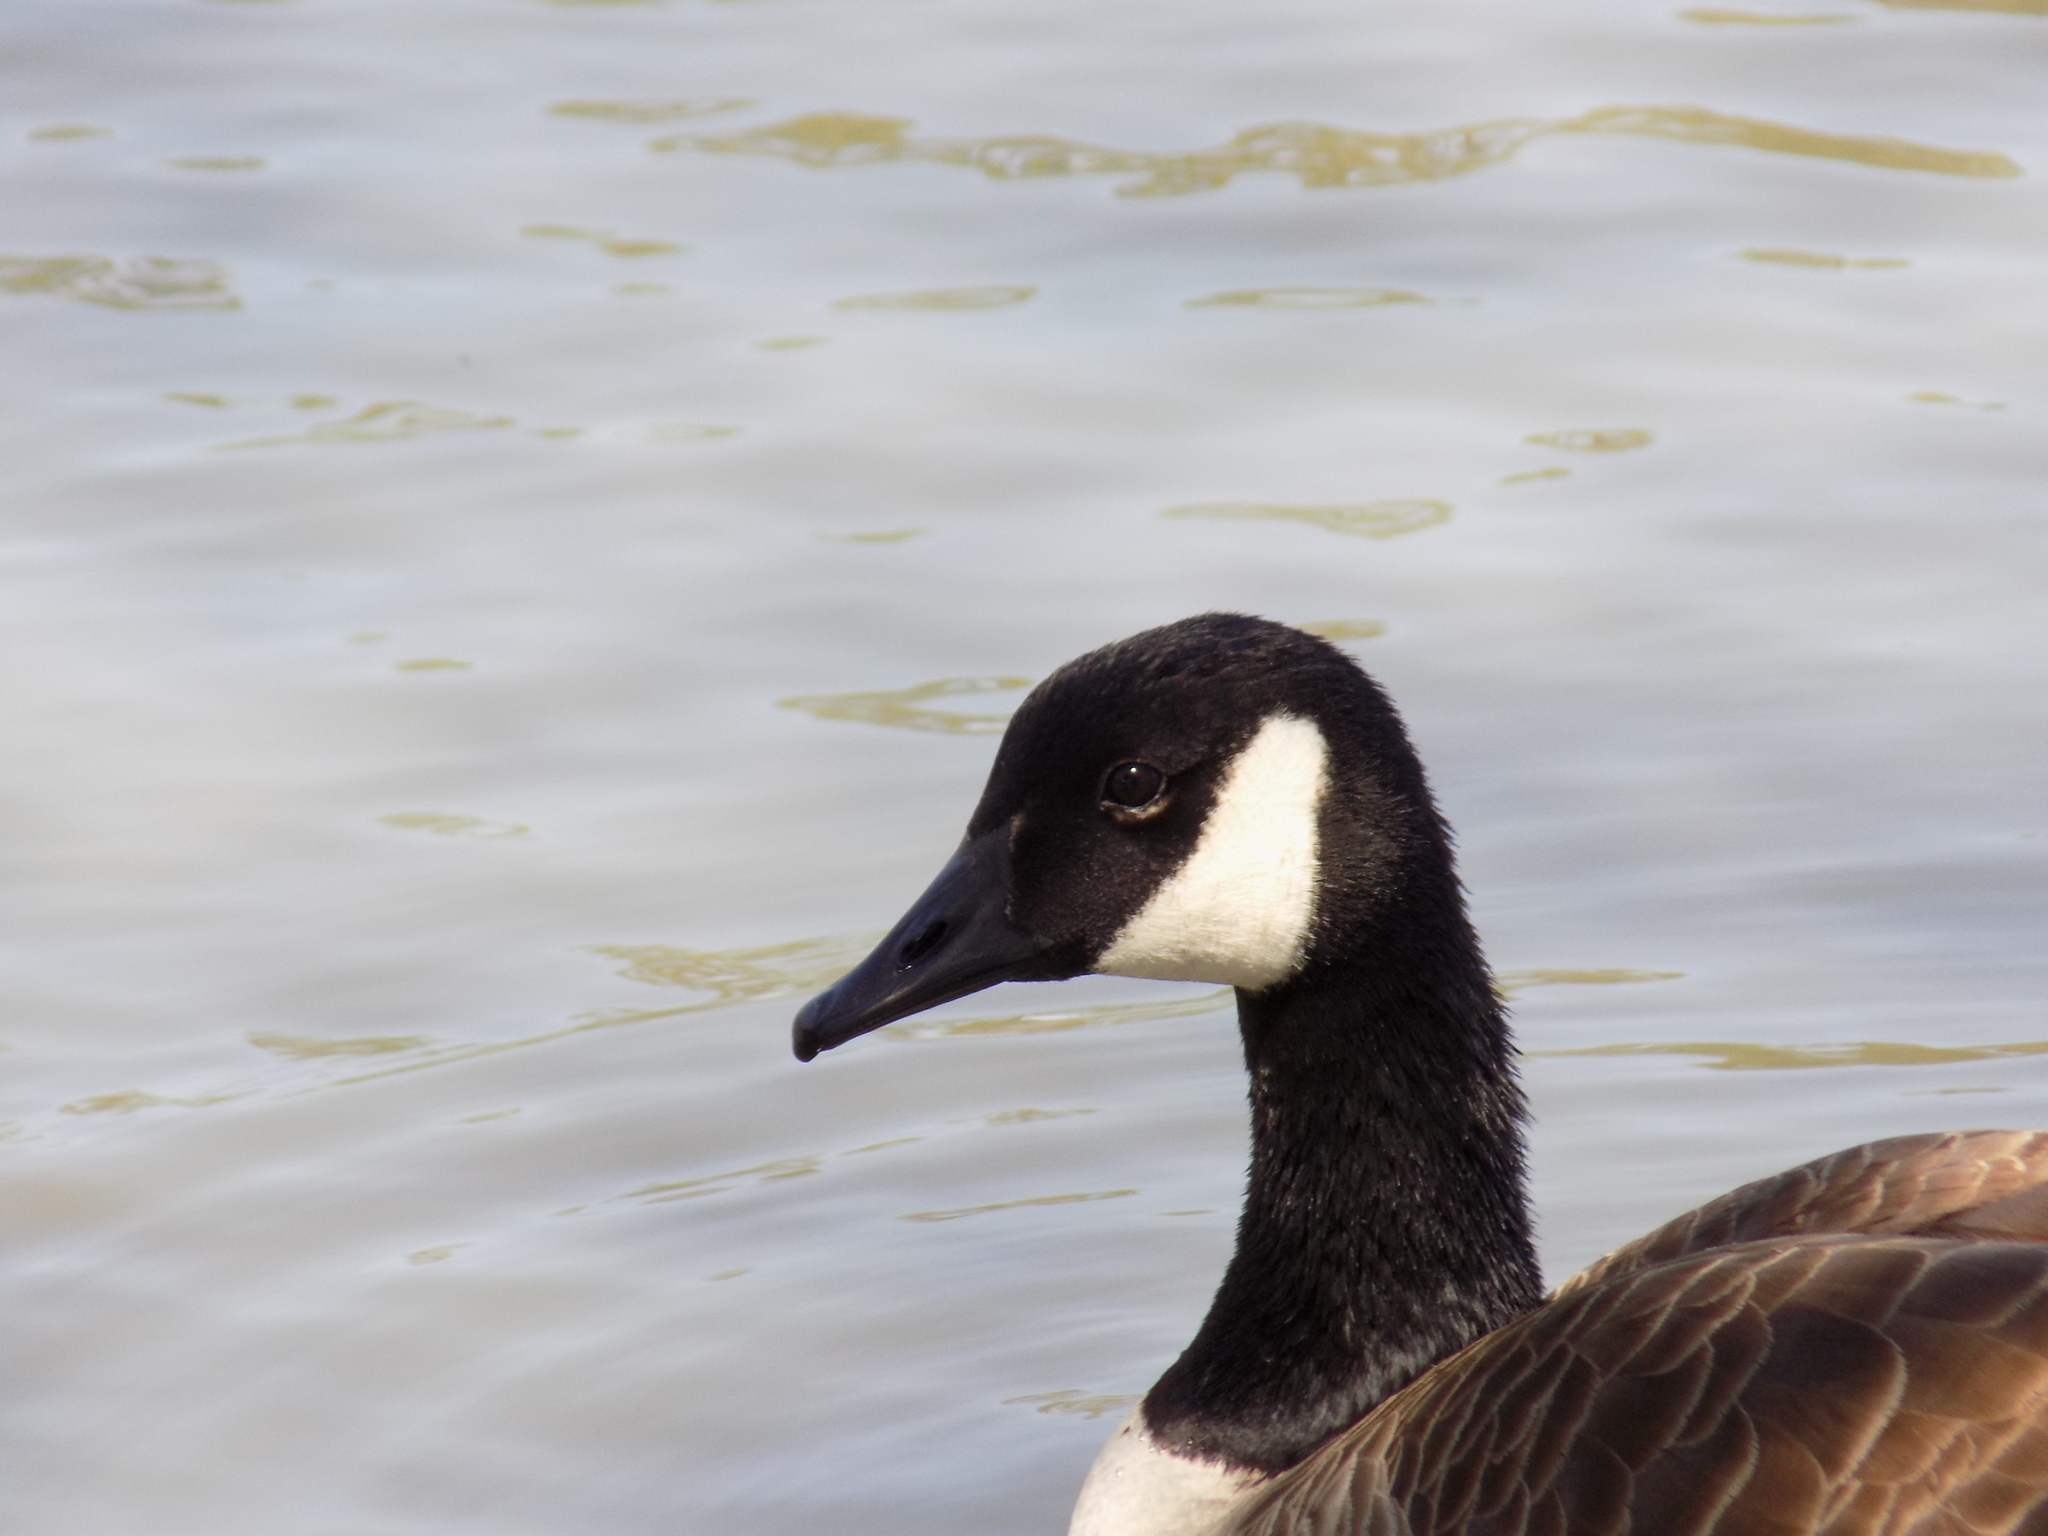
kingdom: Animalia
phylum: Chordata
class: Aves
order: Anseriformes
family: Anatidae
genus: Branta
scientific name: Branta canadensis
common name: Canada goose
